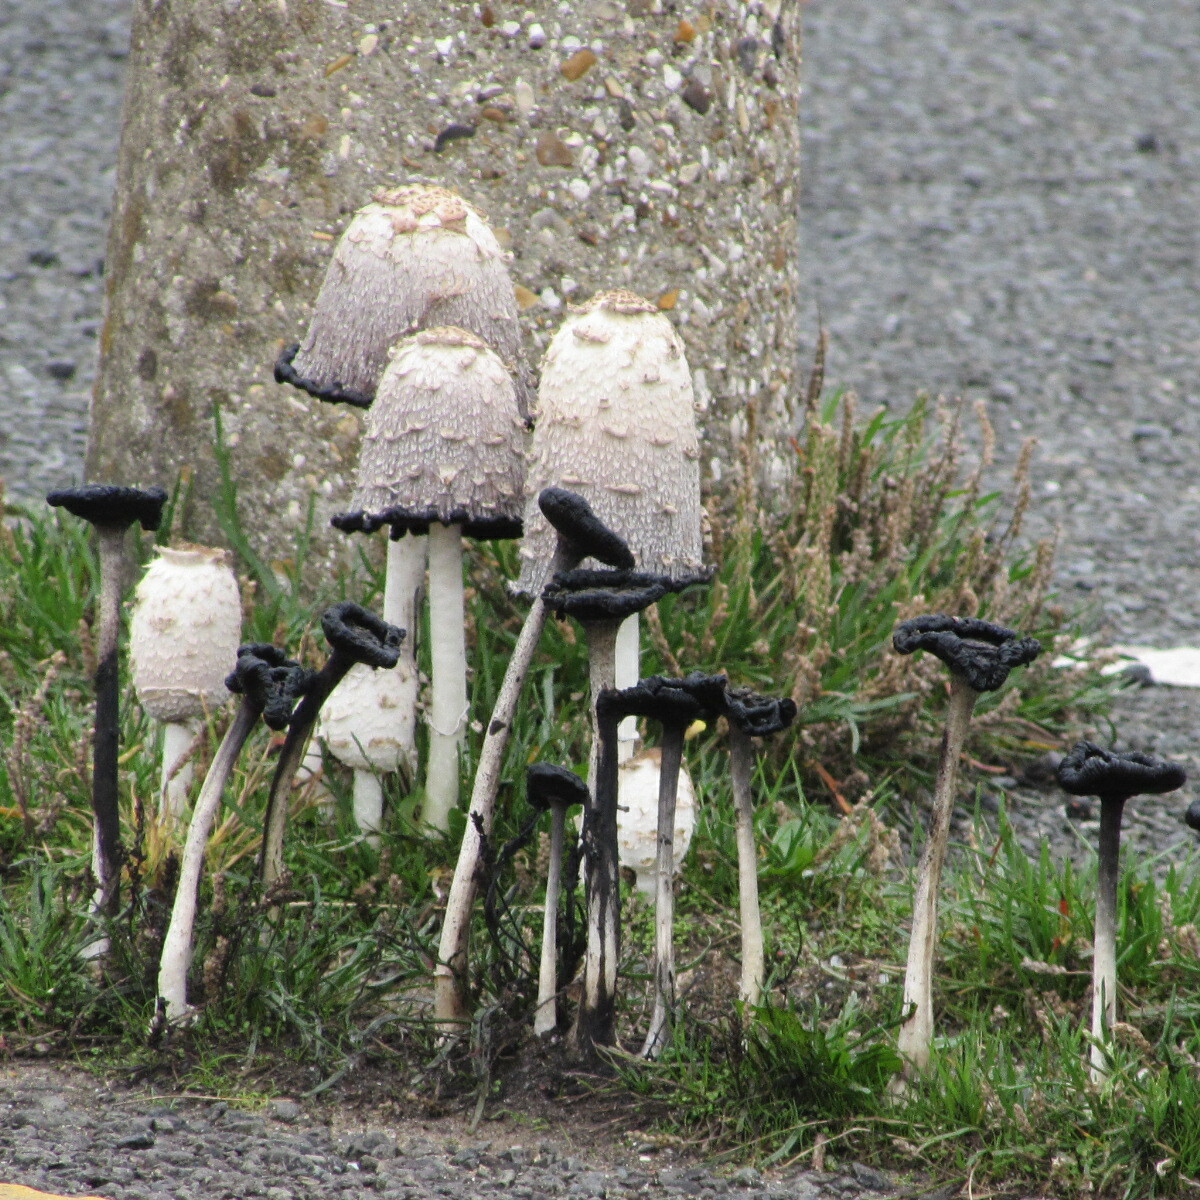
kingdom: Fungi
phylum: Basidiomycota
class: Agaricomycetes
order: Agaricales
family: Agaricaceae
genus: Coprinus
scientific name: Coprinus comatus
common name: Lawyer's wig
